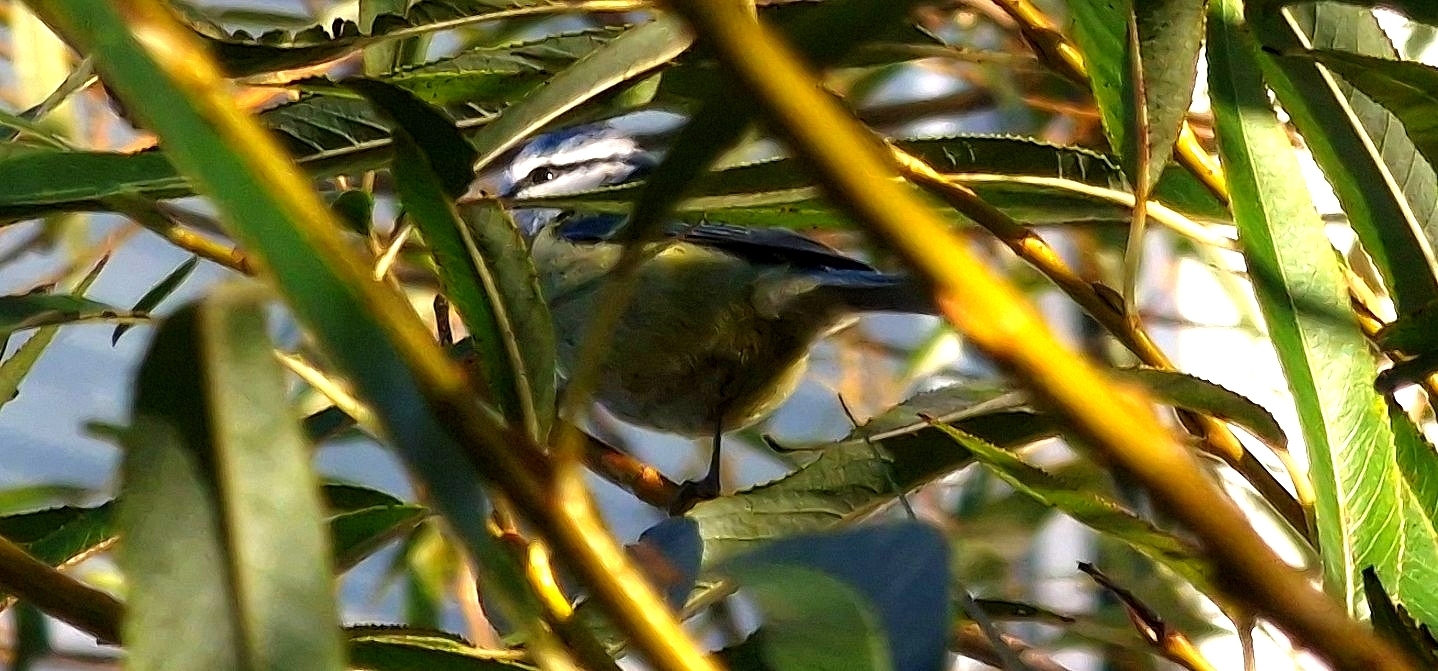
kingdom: Animalia
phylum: Chordata
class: Aves
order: Passeriformes
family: Paridae
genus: Cyanistes
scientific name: Cyanistes caeruleus
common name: Eurasian blue tit
